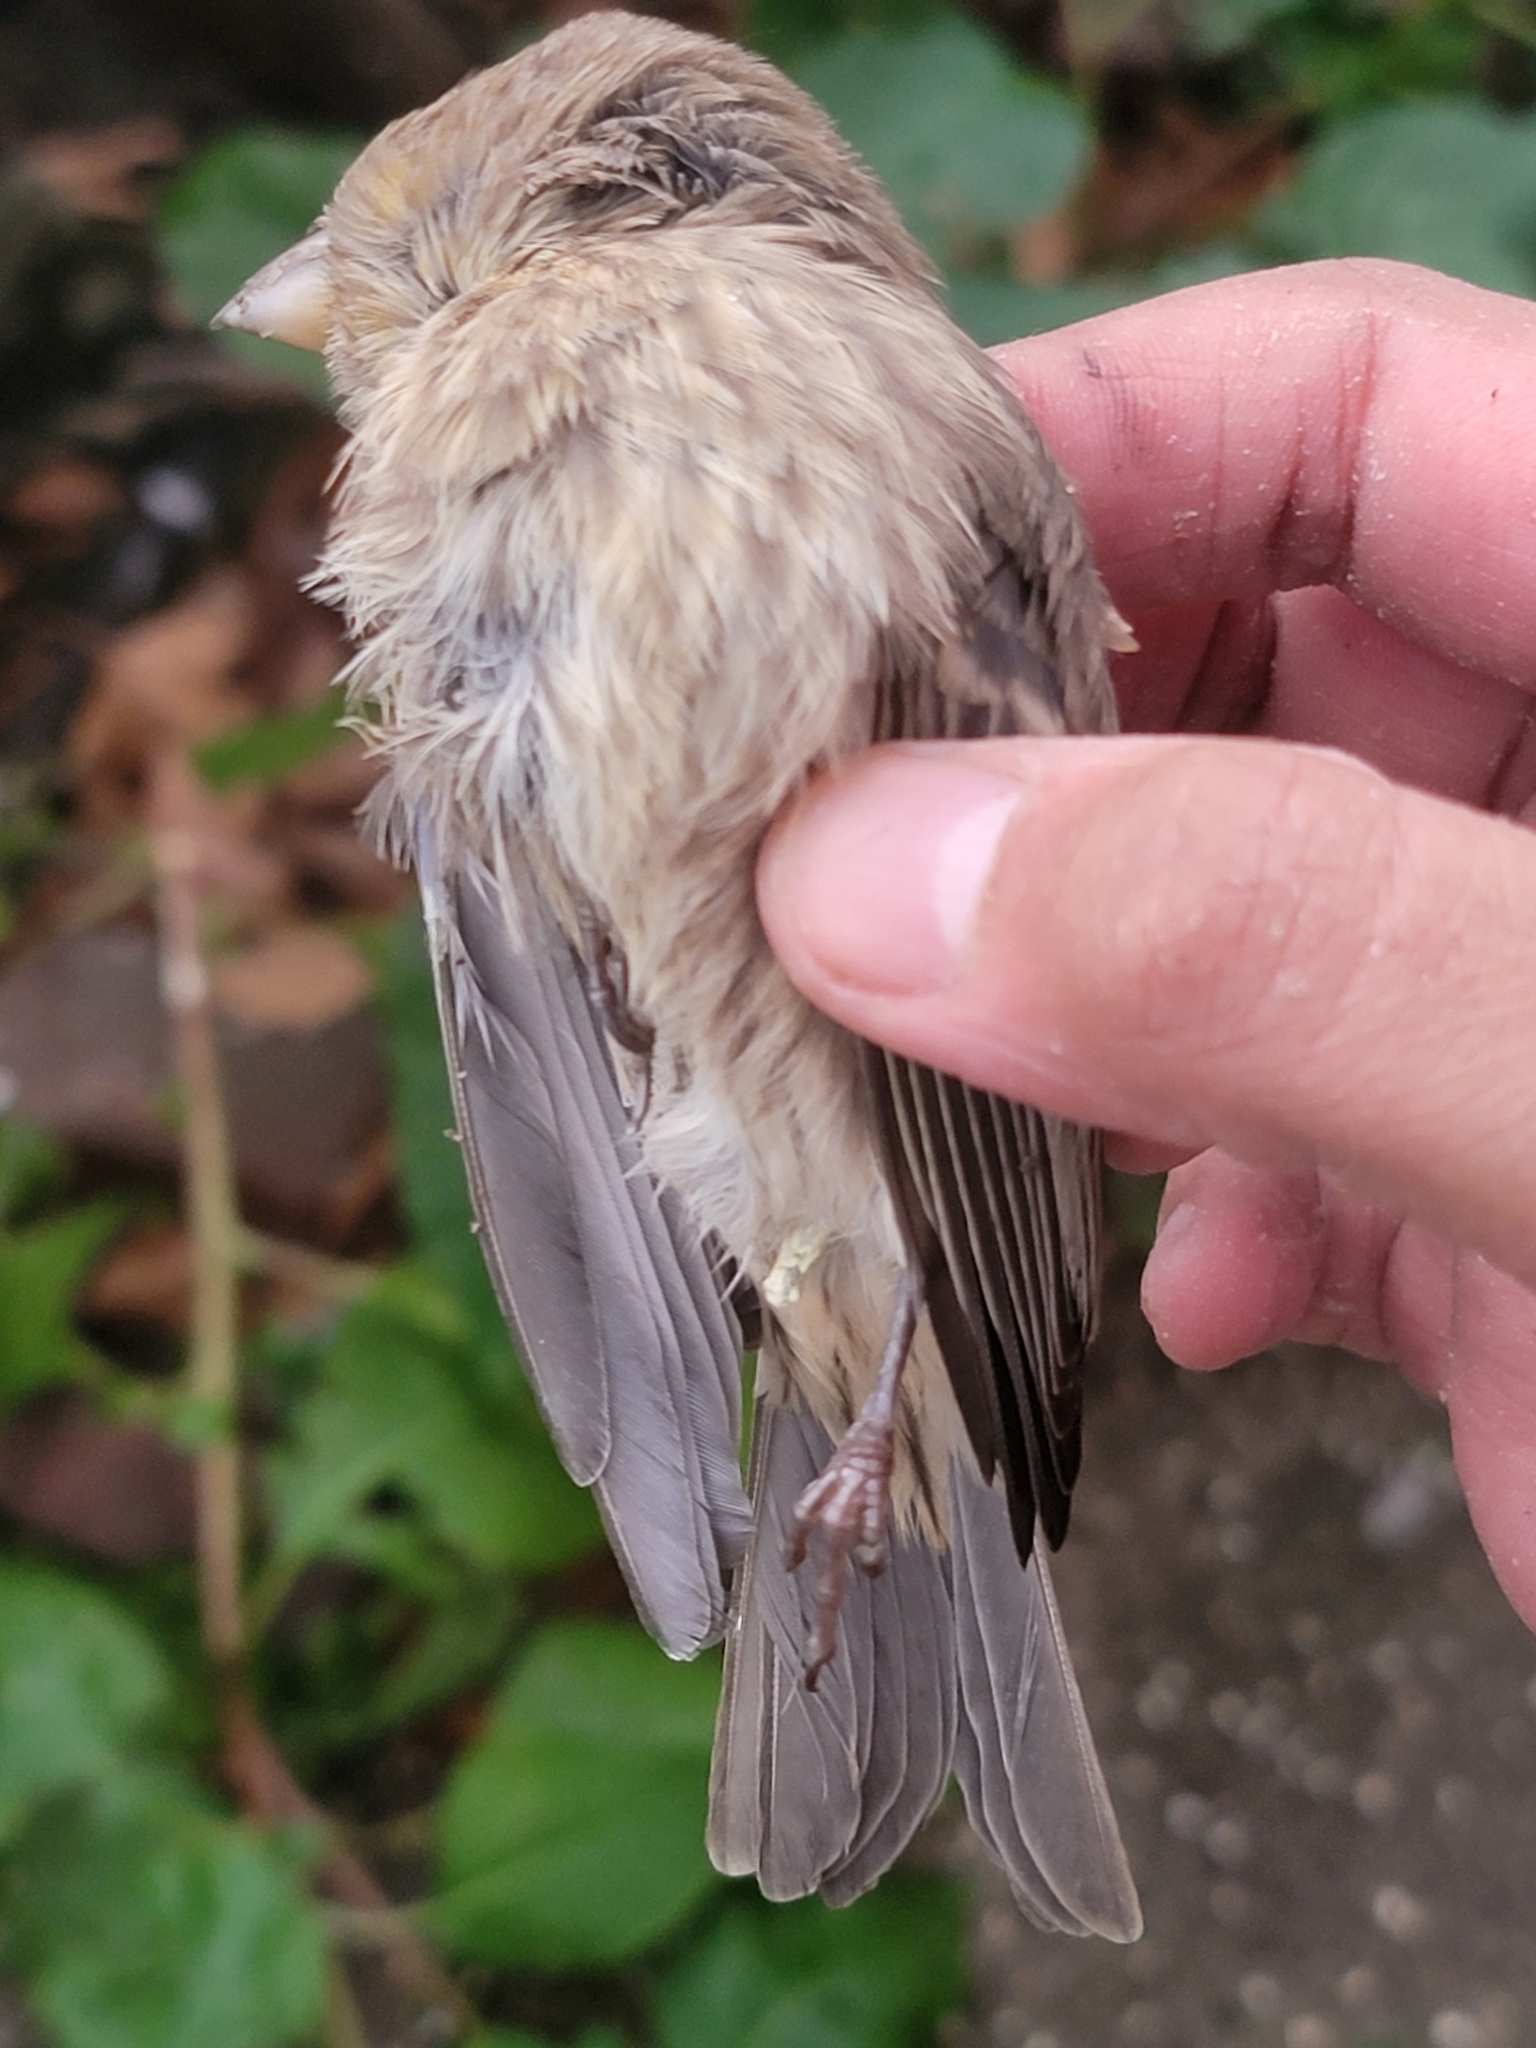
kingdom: Animalia
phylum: Chordata
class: Aves
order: Passeriformes
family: Fringillidae
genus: Haemorhous
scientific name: Haemorhous mexicanus
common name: House finch
